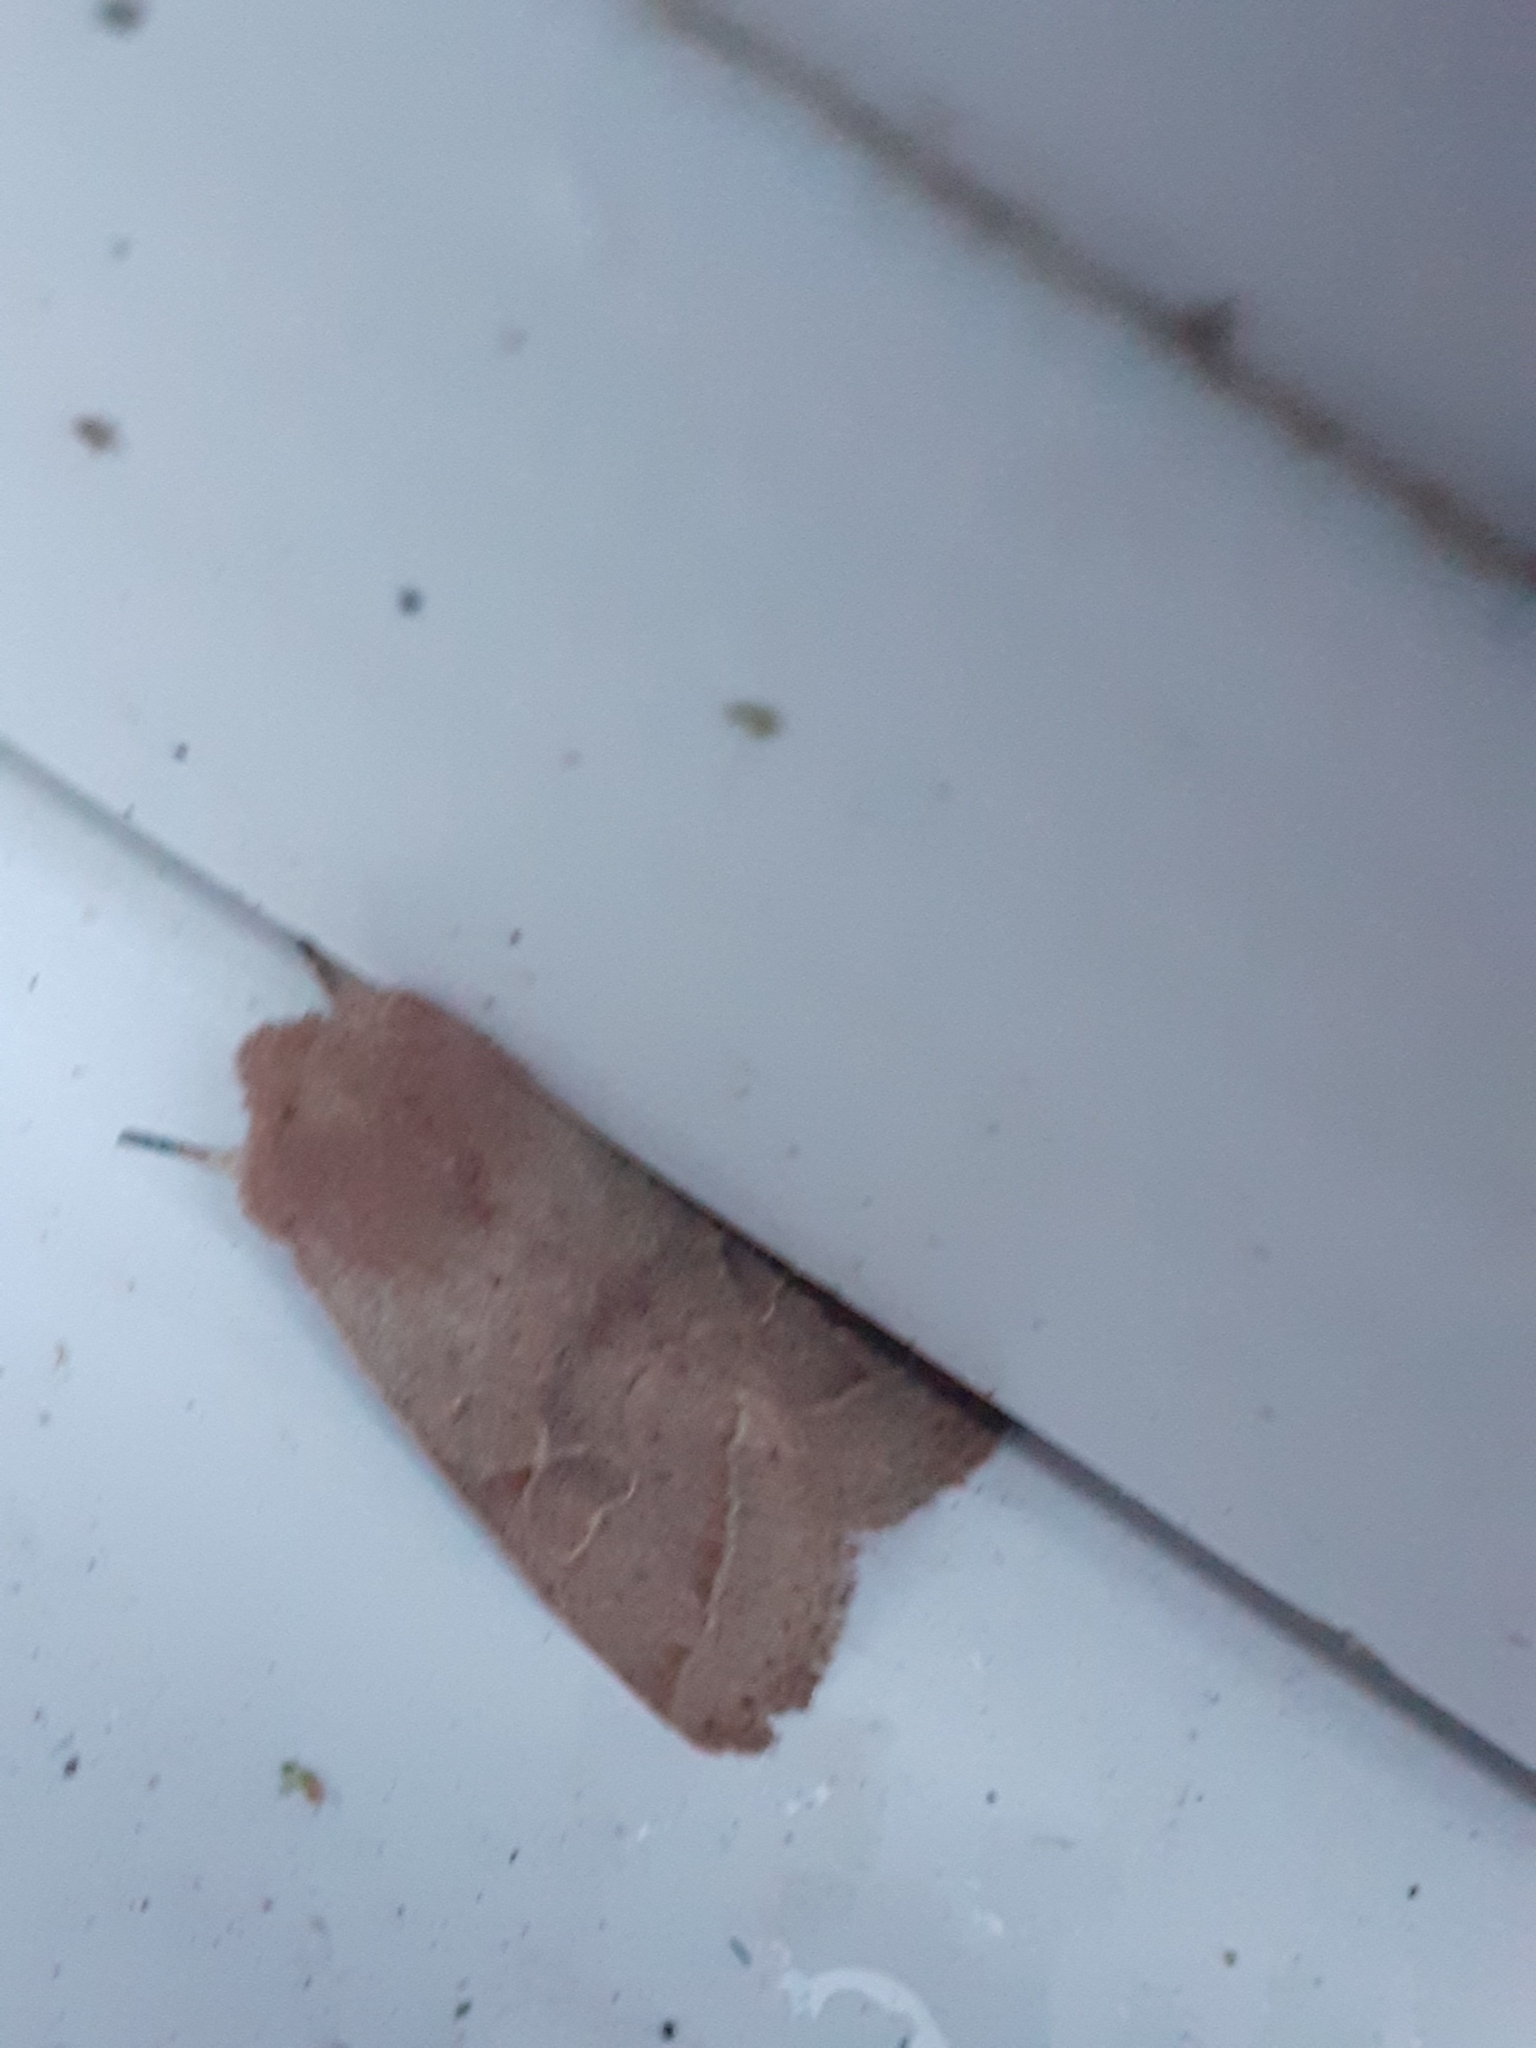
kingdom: Animalia
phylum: Arthropoda
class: Insecta
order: Lepidoptera
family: Noctuidae
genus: Orthosia
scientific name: Orthosia cerasi
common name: Common quaker
